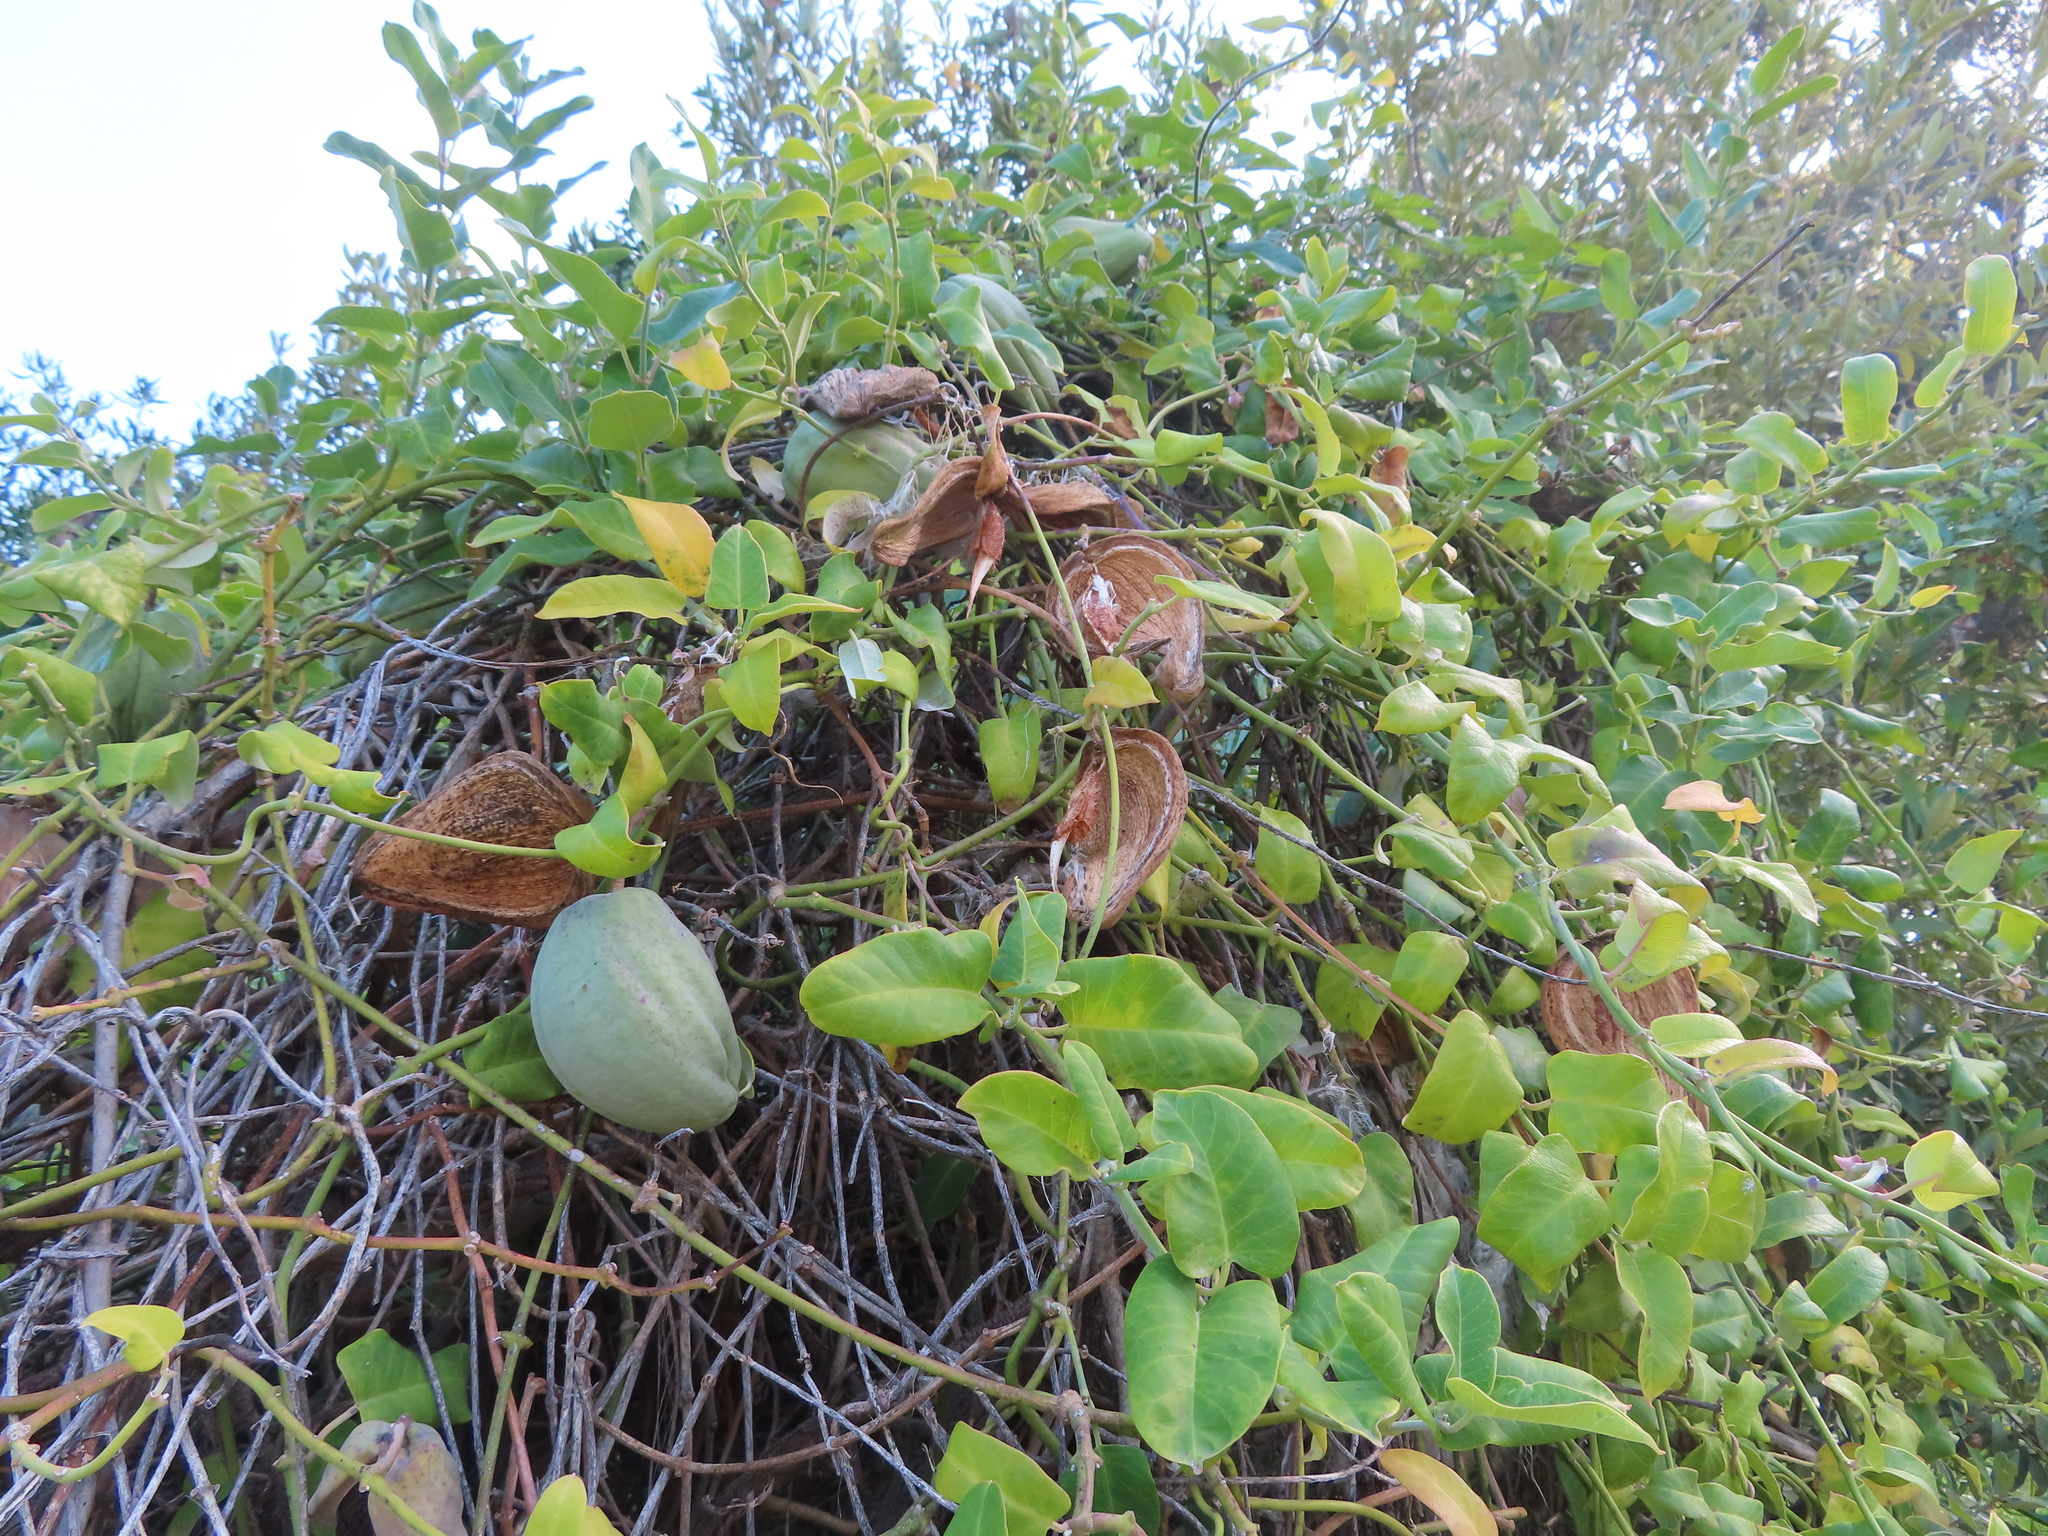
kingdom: Plantae
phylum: Tracheophyta
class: Magnoliopsida
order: Gentianales
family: Apocynaceae
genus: Araujia
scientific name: Araujia sericifera
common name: White bladderflower
